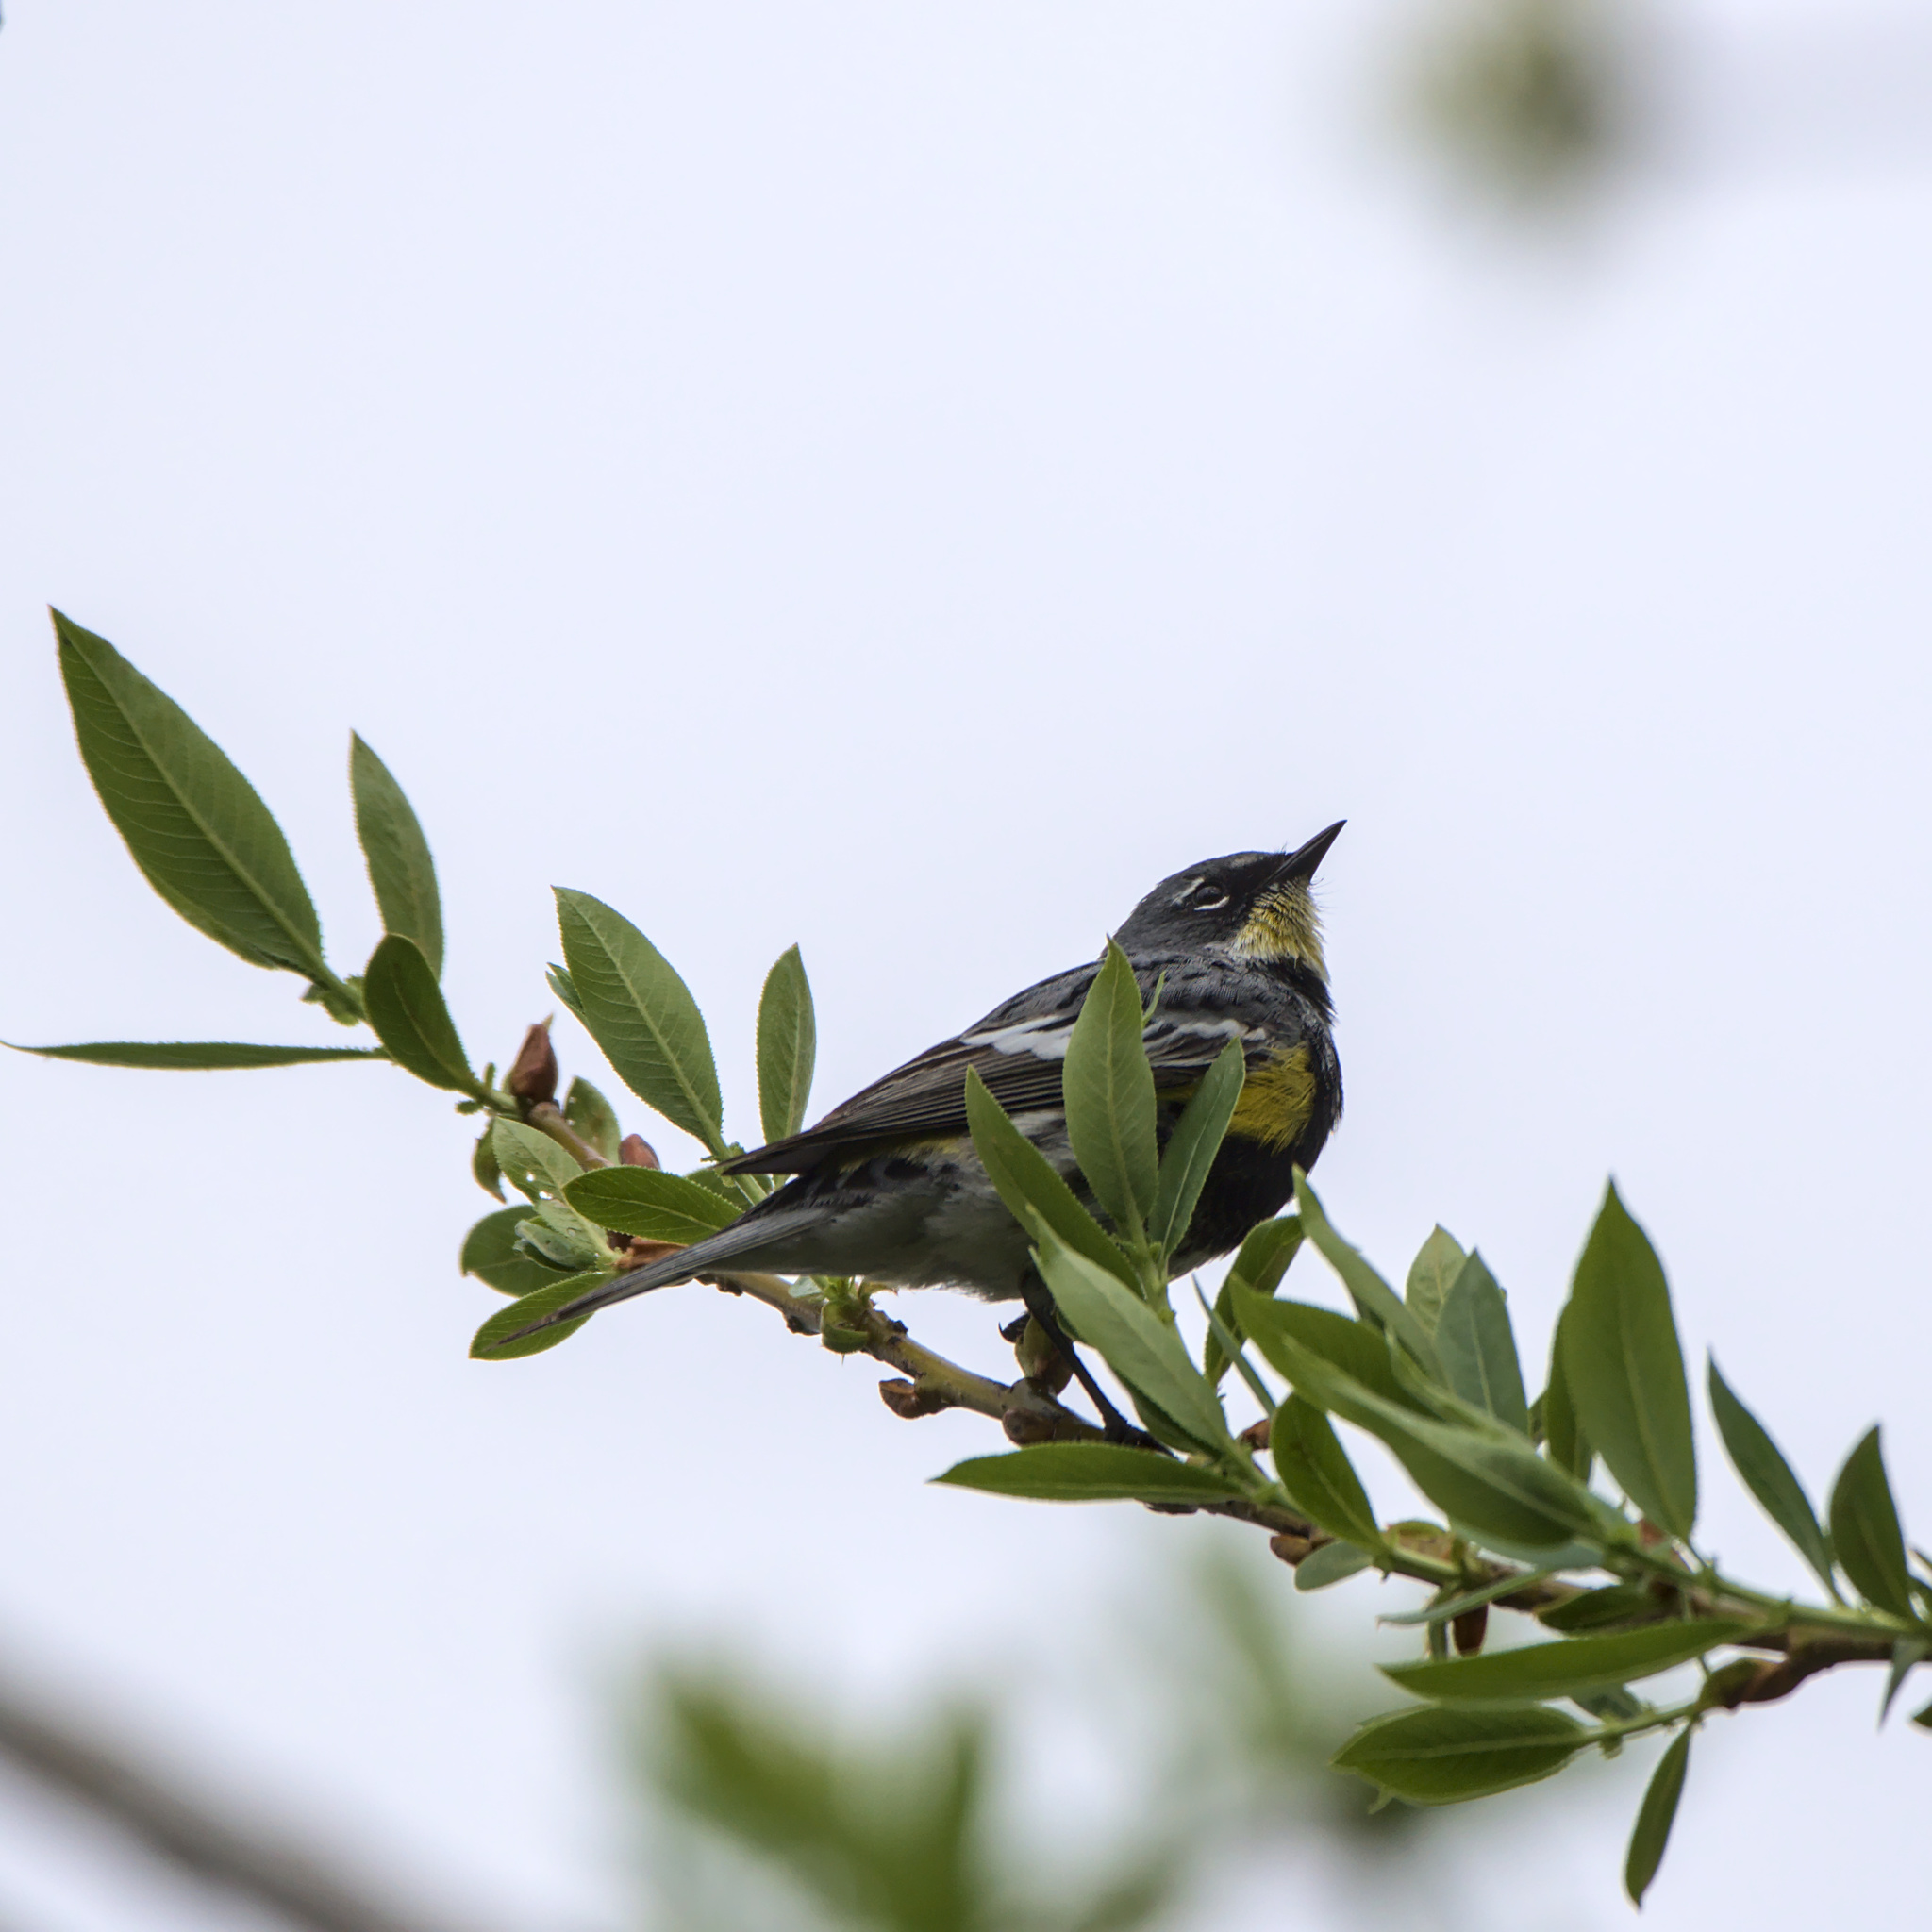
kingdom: Animalia
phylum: Chordata
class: Aves
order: Passeriformes
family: Parulidae
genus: Setophaga
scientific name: Setophaga coronata
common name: Myrtle warbler
